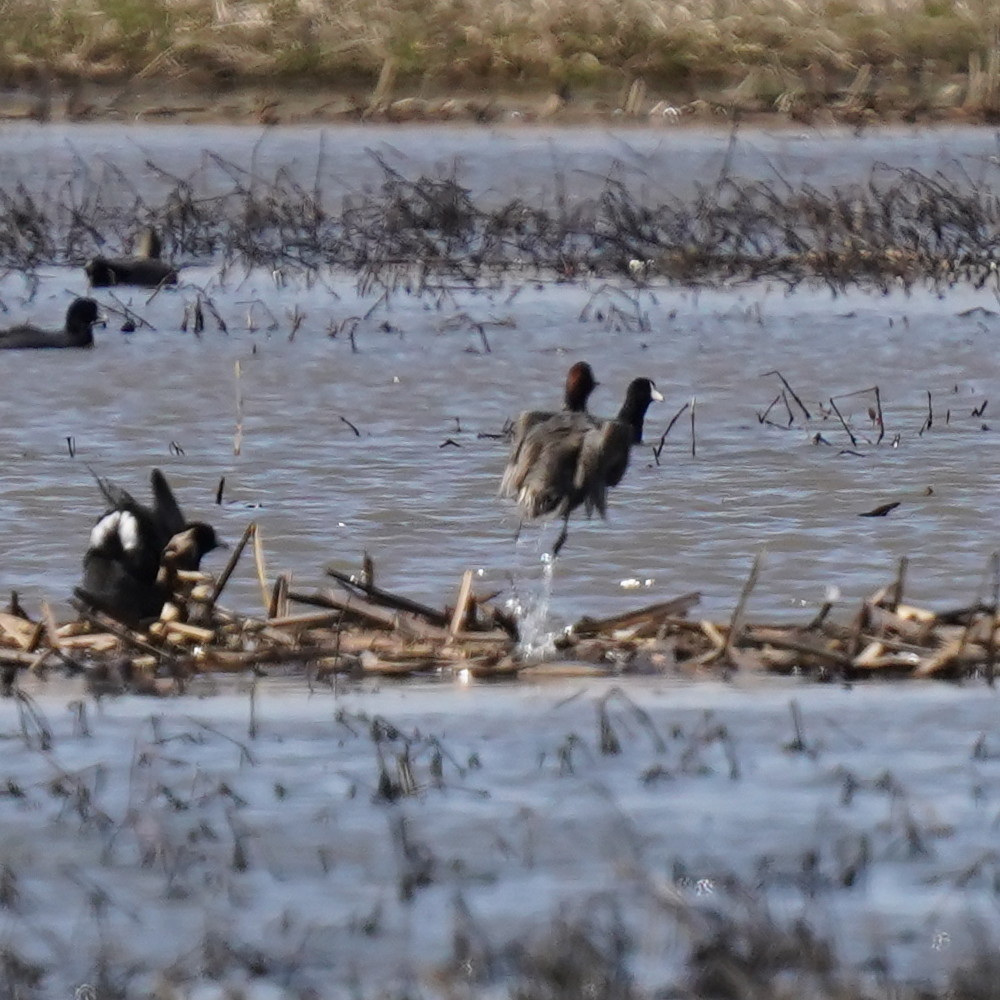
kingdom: Animalia
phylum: Chordata
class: Aves
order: Anseriformes
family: Anatidae
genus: Anas
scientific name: Anas crecca
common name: Eurasian teal
